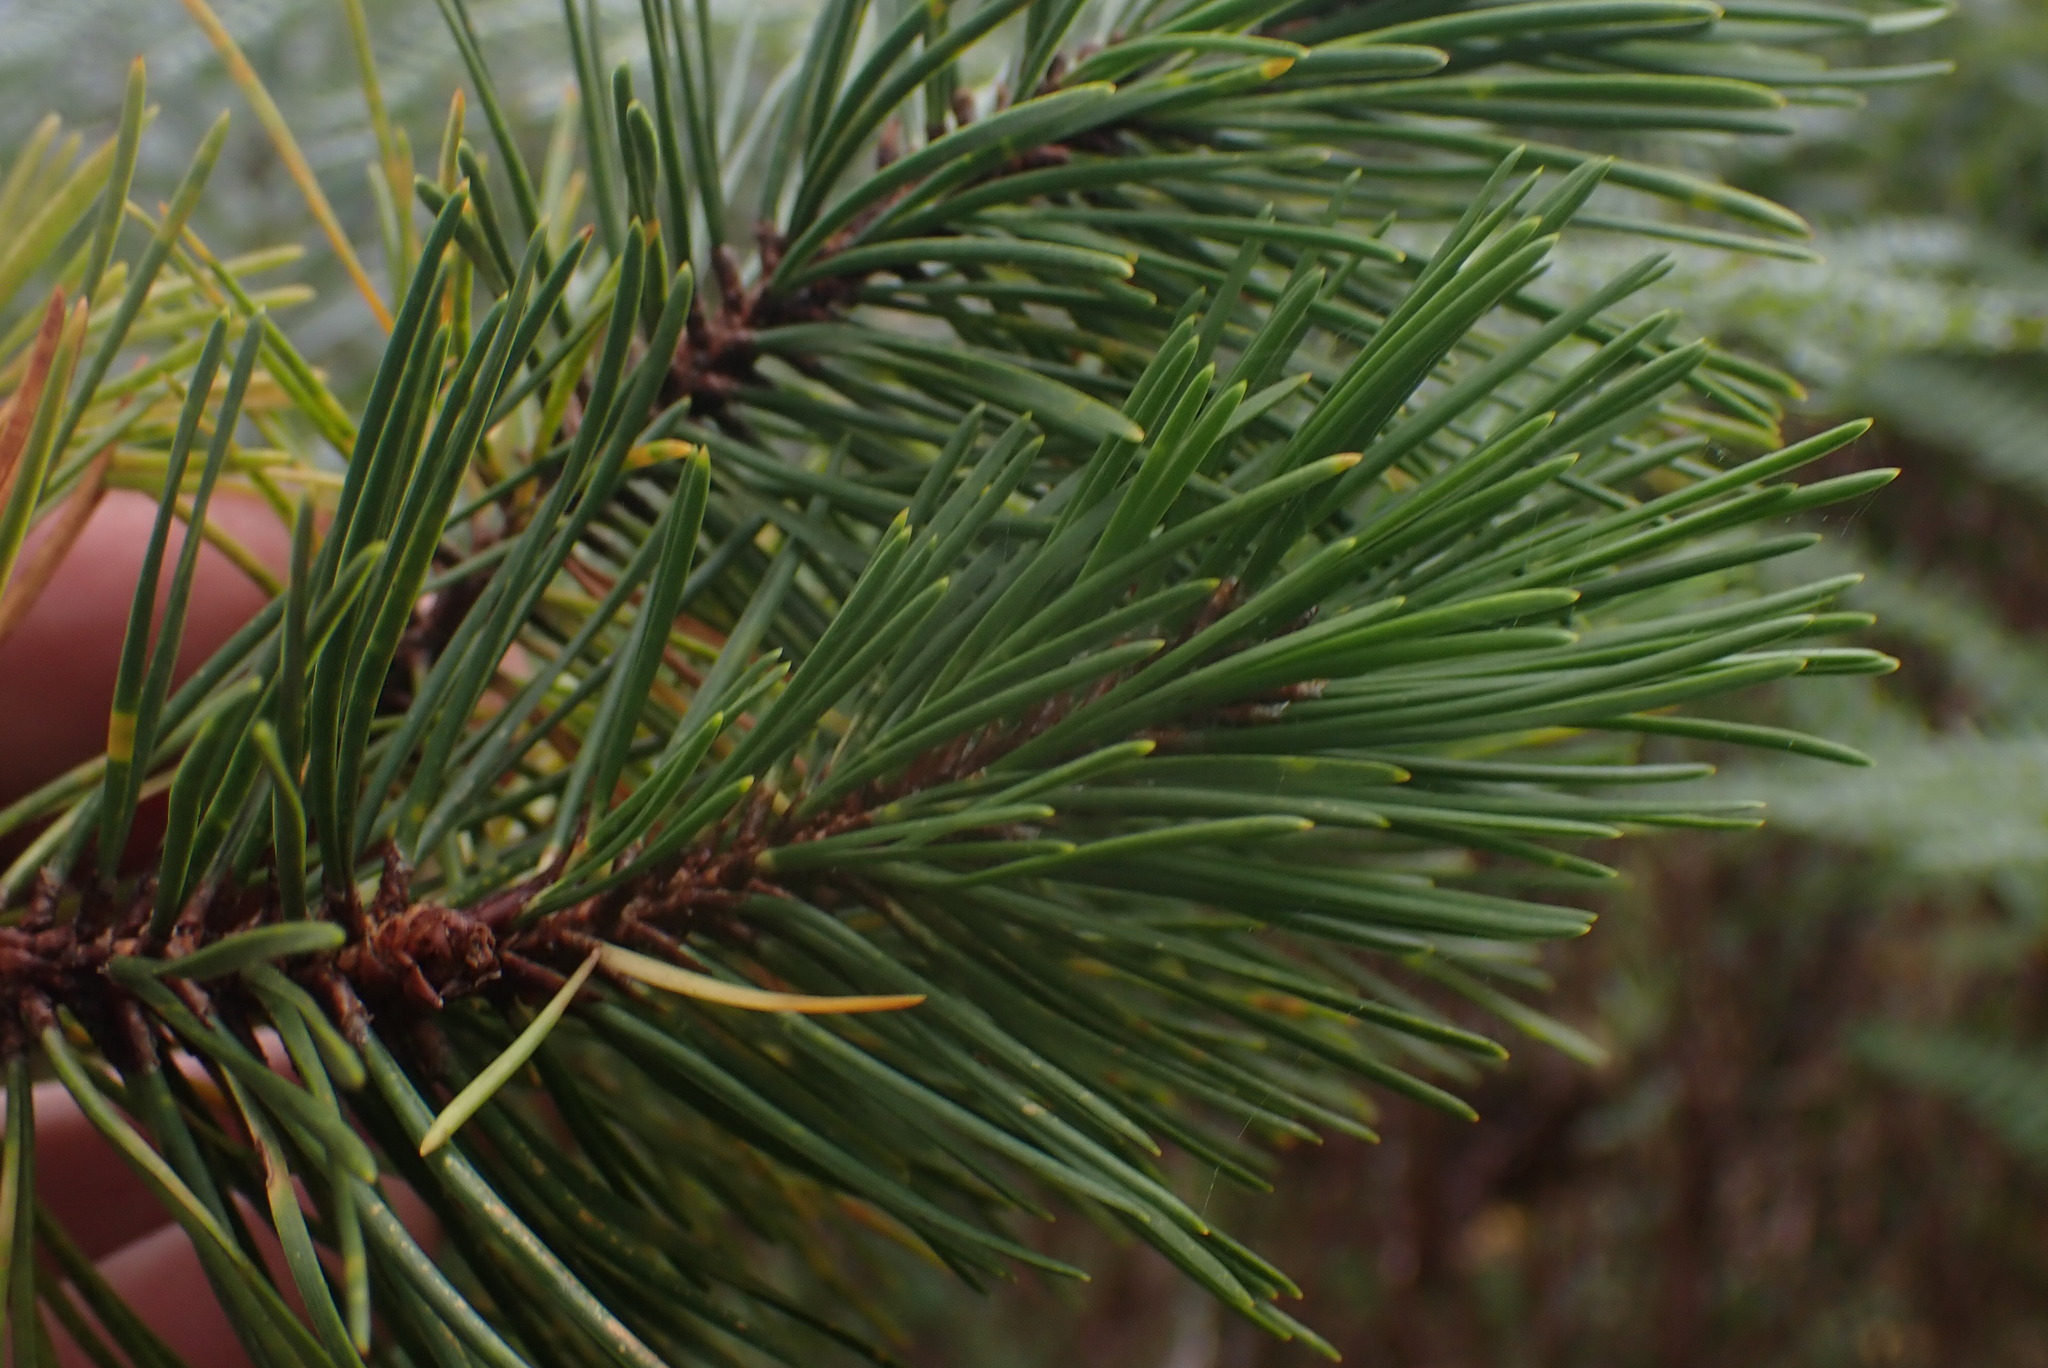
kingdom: Plantae
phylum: Tracheophyta
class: Pinopsida
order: Pinales
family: Pinaceae
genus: Pinus
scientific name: Pinus contorta
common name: Lodgepole pine
